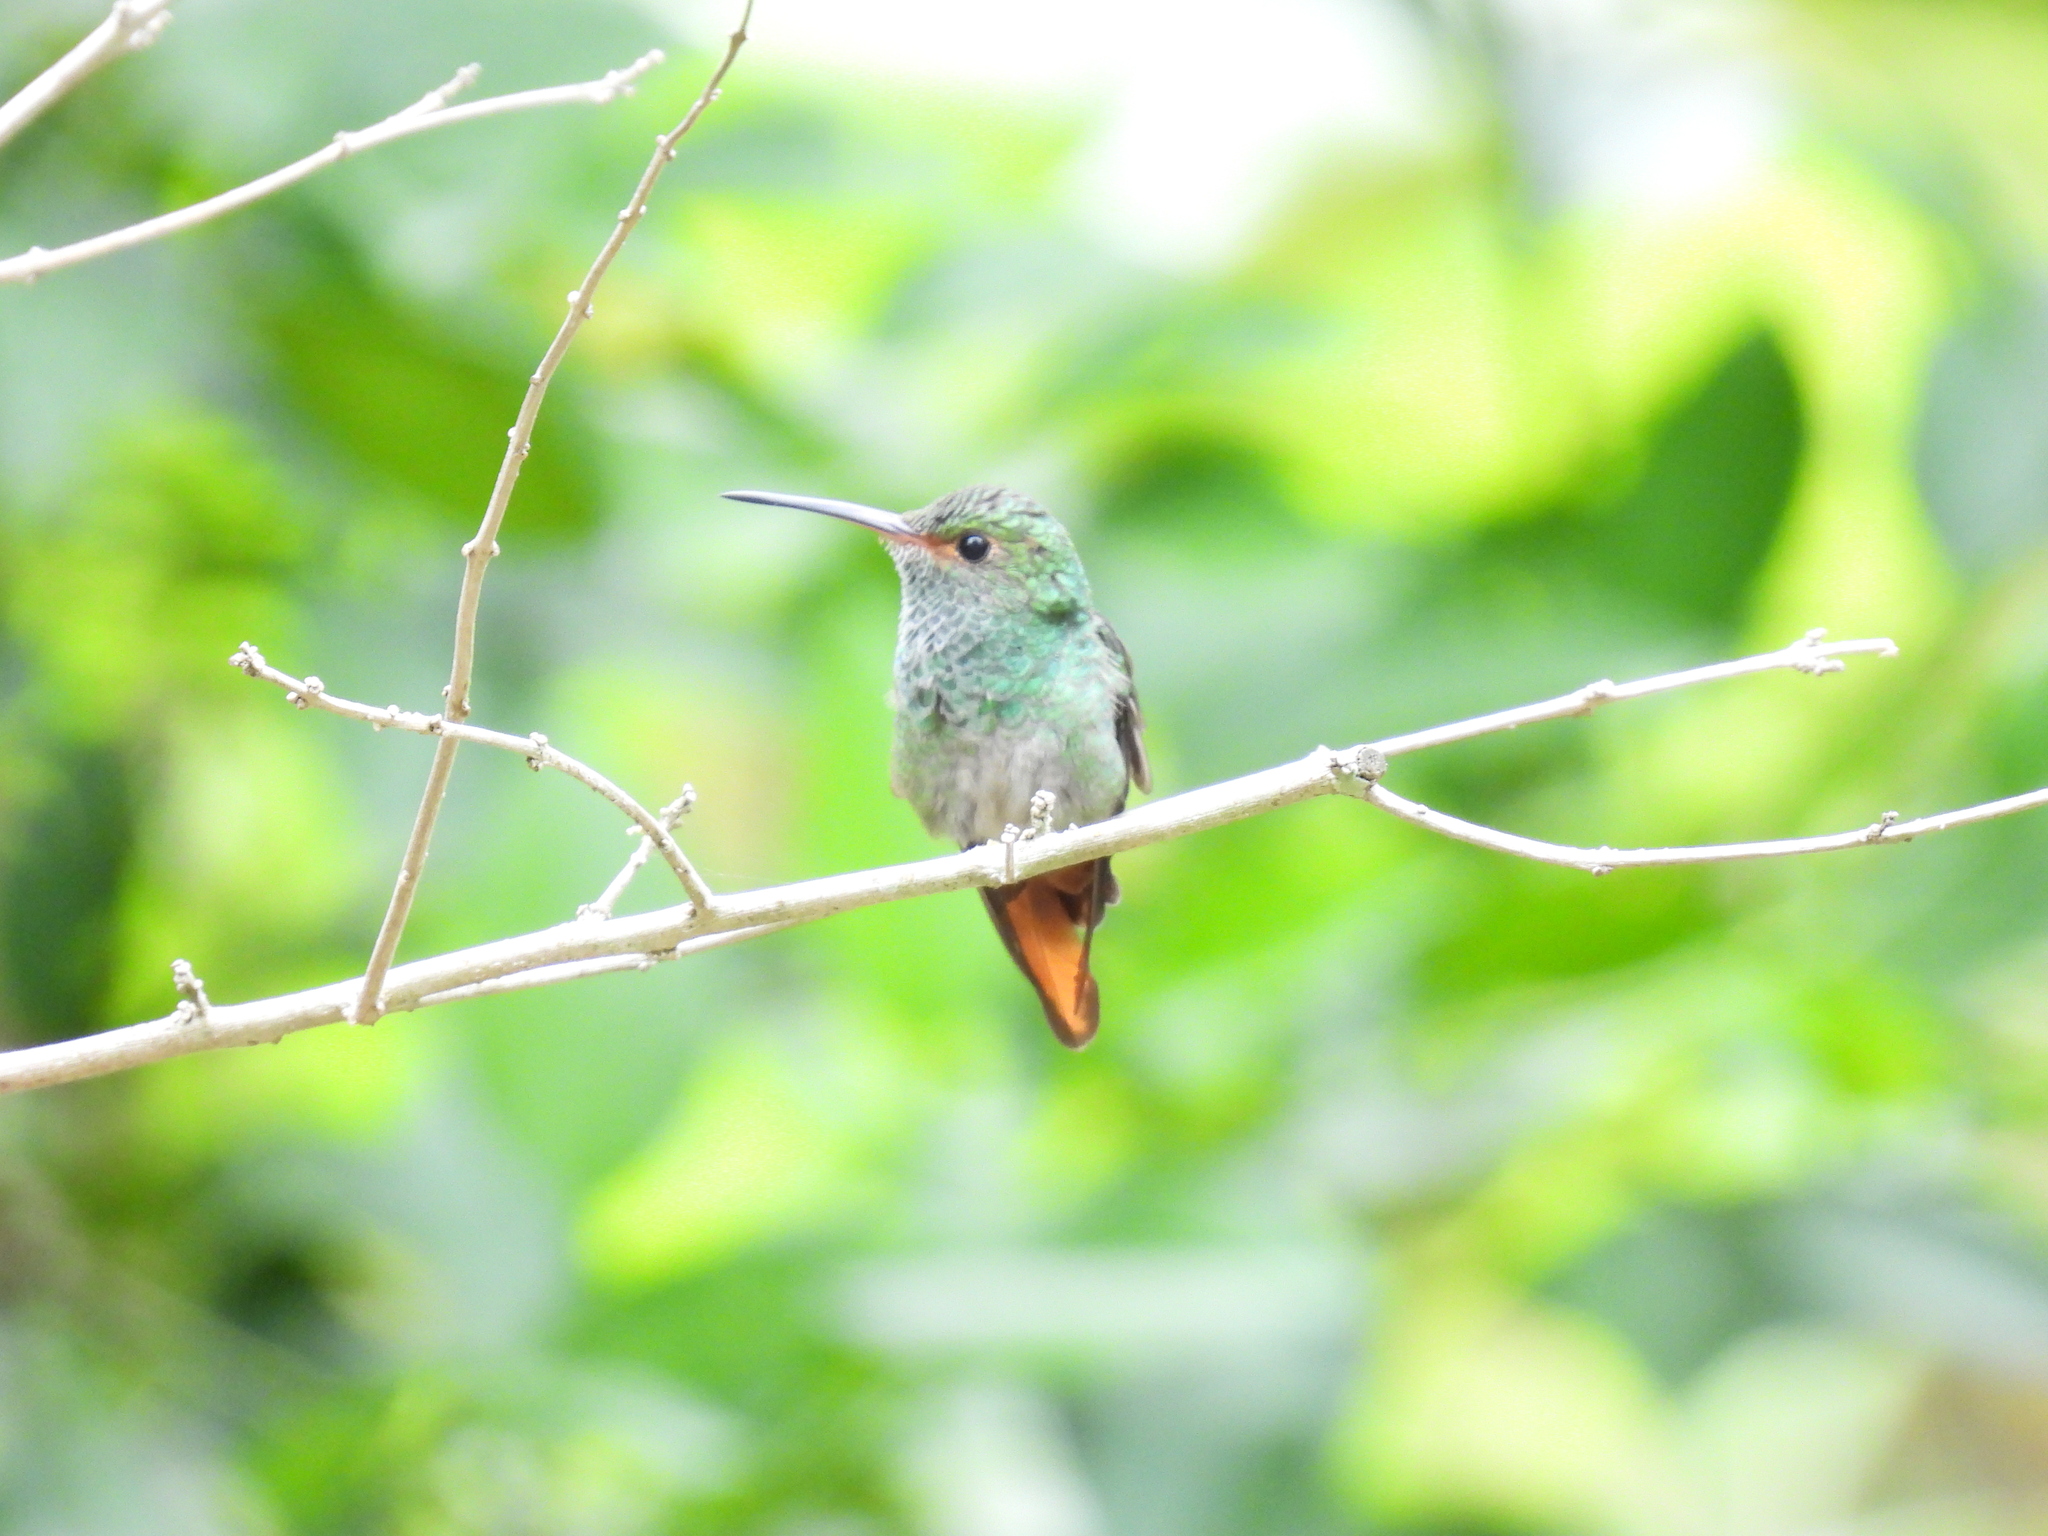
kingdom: Animalia
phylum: Chordata
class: Aves
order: Apodiformes
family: Trochilidae
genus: Amazilia
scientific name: Amazilia tzacatl
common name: Rufous-tailed hummingbird
